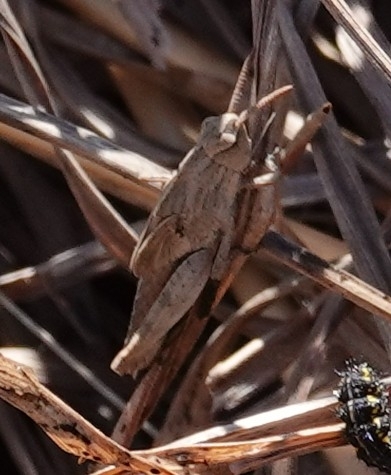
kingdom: Animalia
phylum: Arthropoda
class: Insecta
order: Orthoptera
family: Acrididae
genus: Chortophaga
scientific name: Chortophaga viridifasciata
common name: Green-striped grasshopper
